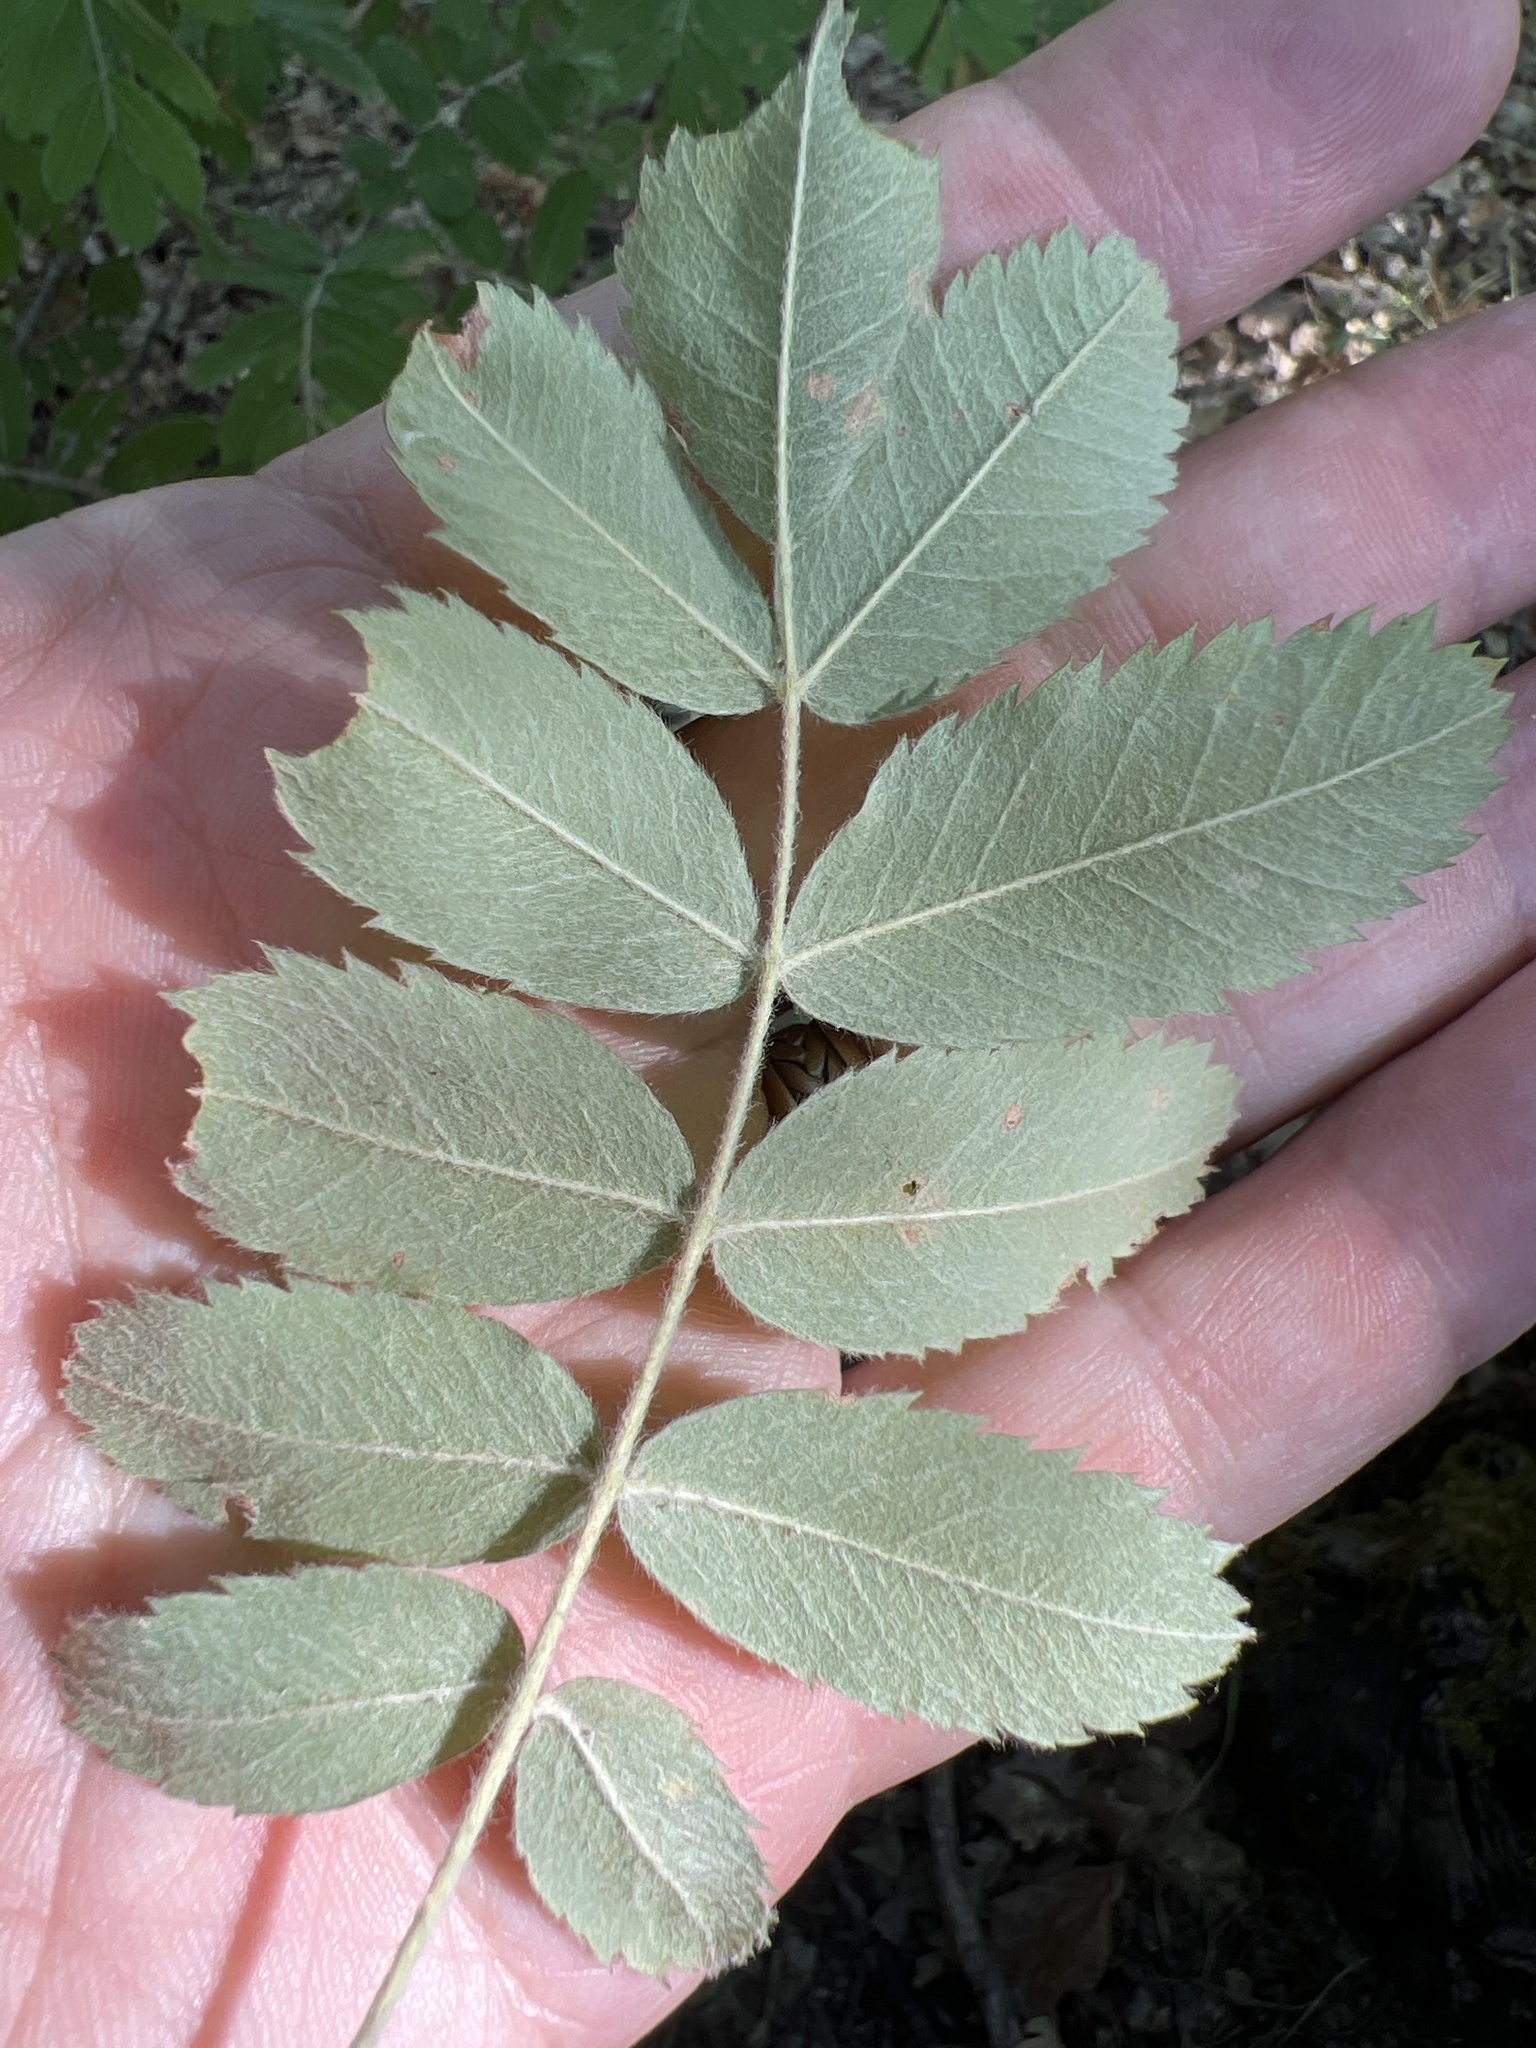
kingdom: Plantae
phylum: Tracheophyta
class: Magnoliopsida
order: Rosales
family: Rosaceae
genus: Cormus
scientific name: Cormus domestica
